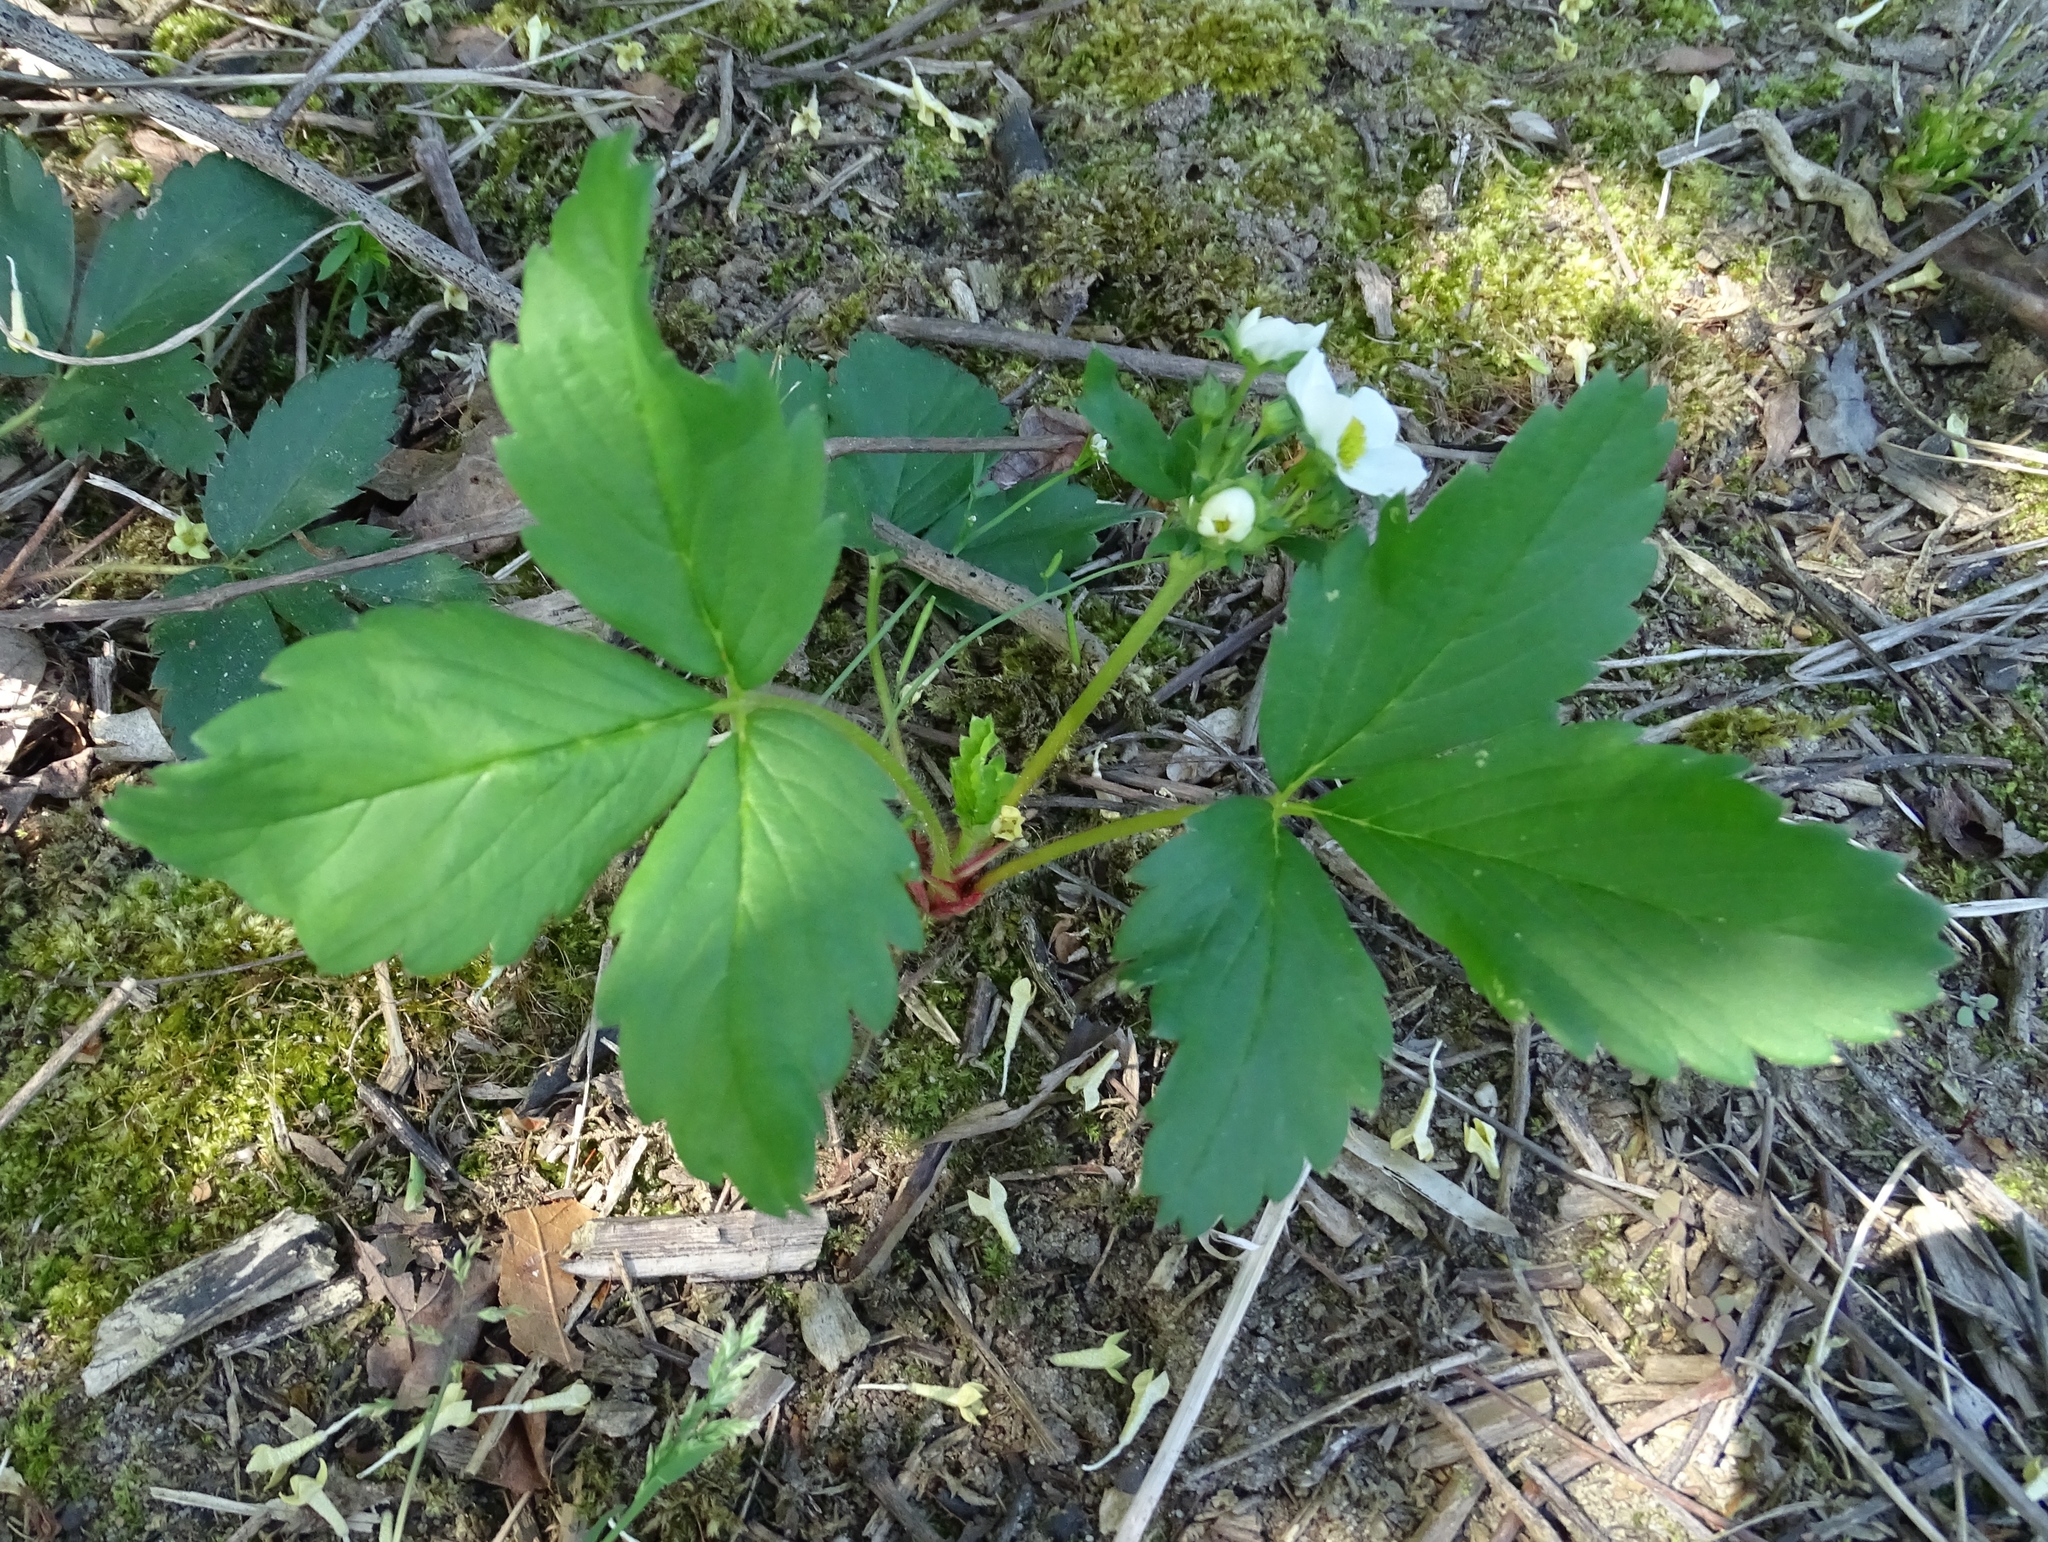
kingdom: Plantae
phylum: Tracheophyta
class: Magnoliopsida
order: Rosales
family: Rosaceae
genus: Fragaria
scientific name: Fragaria virginiana
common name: Thickleaved wild strawberry
